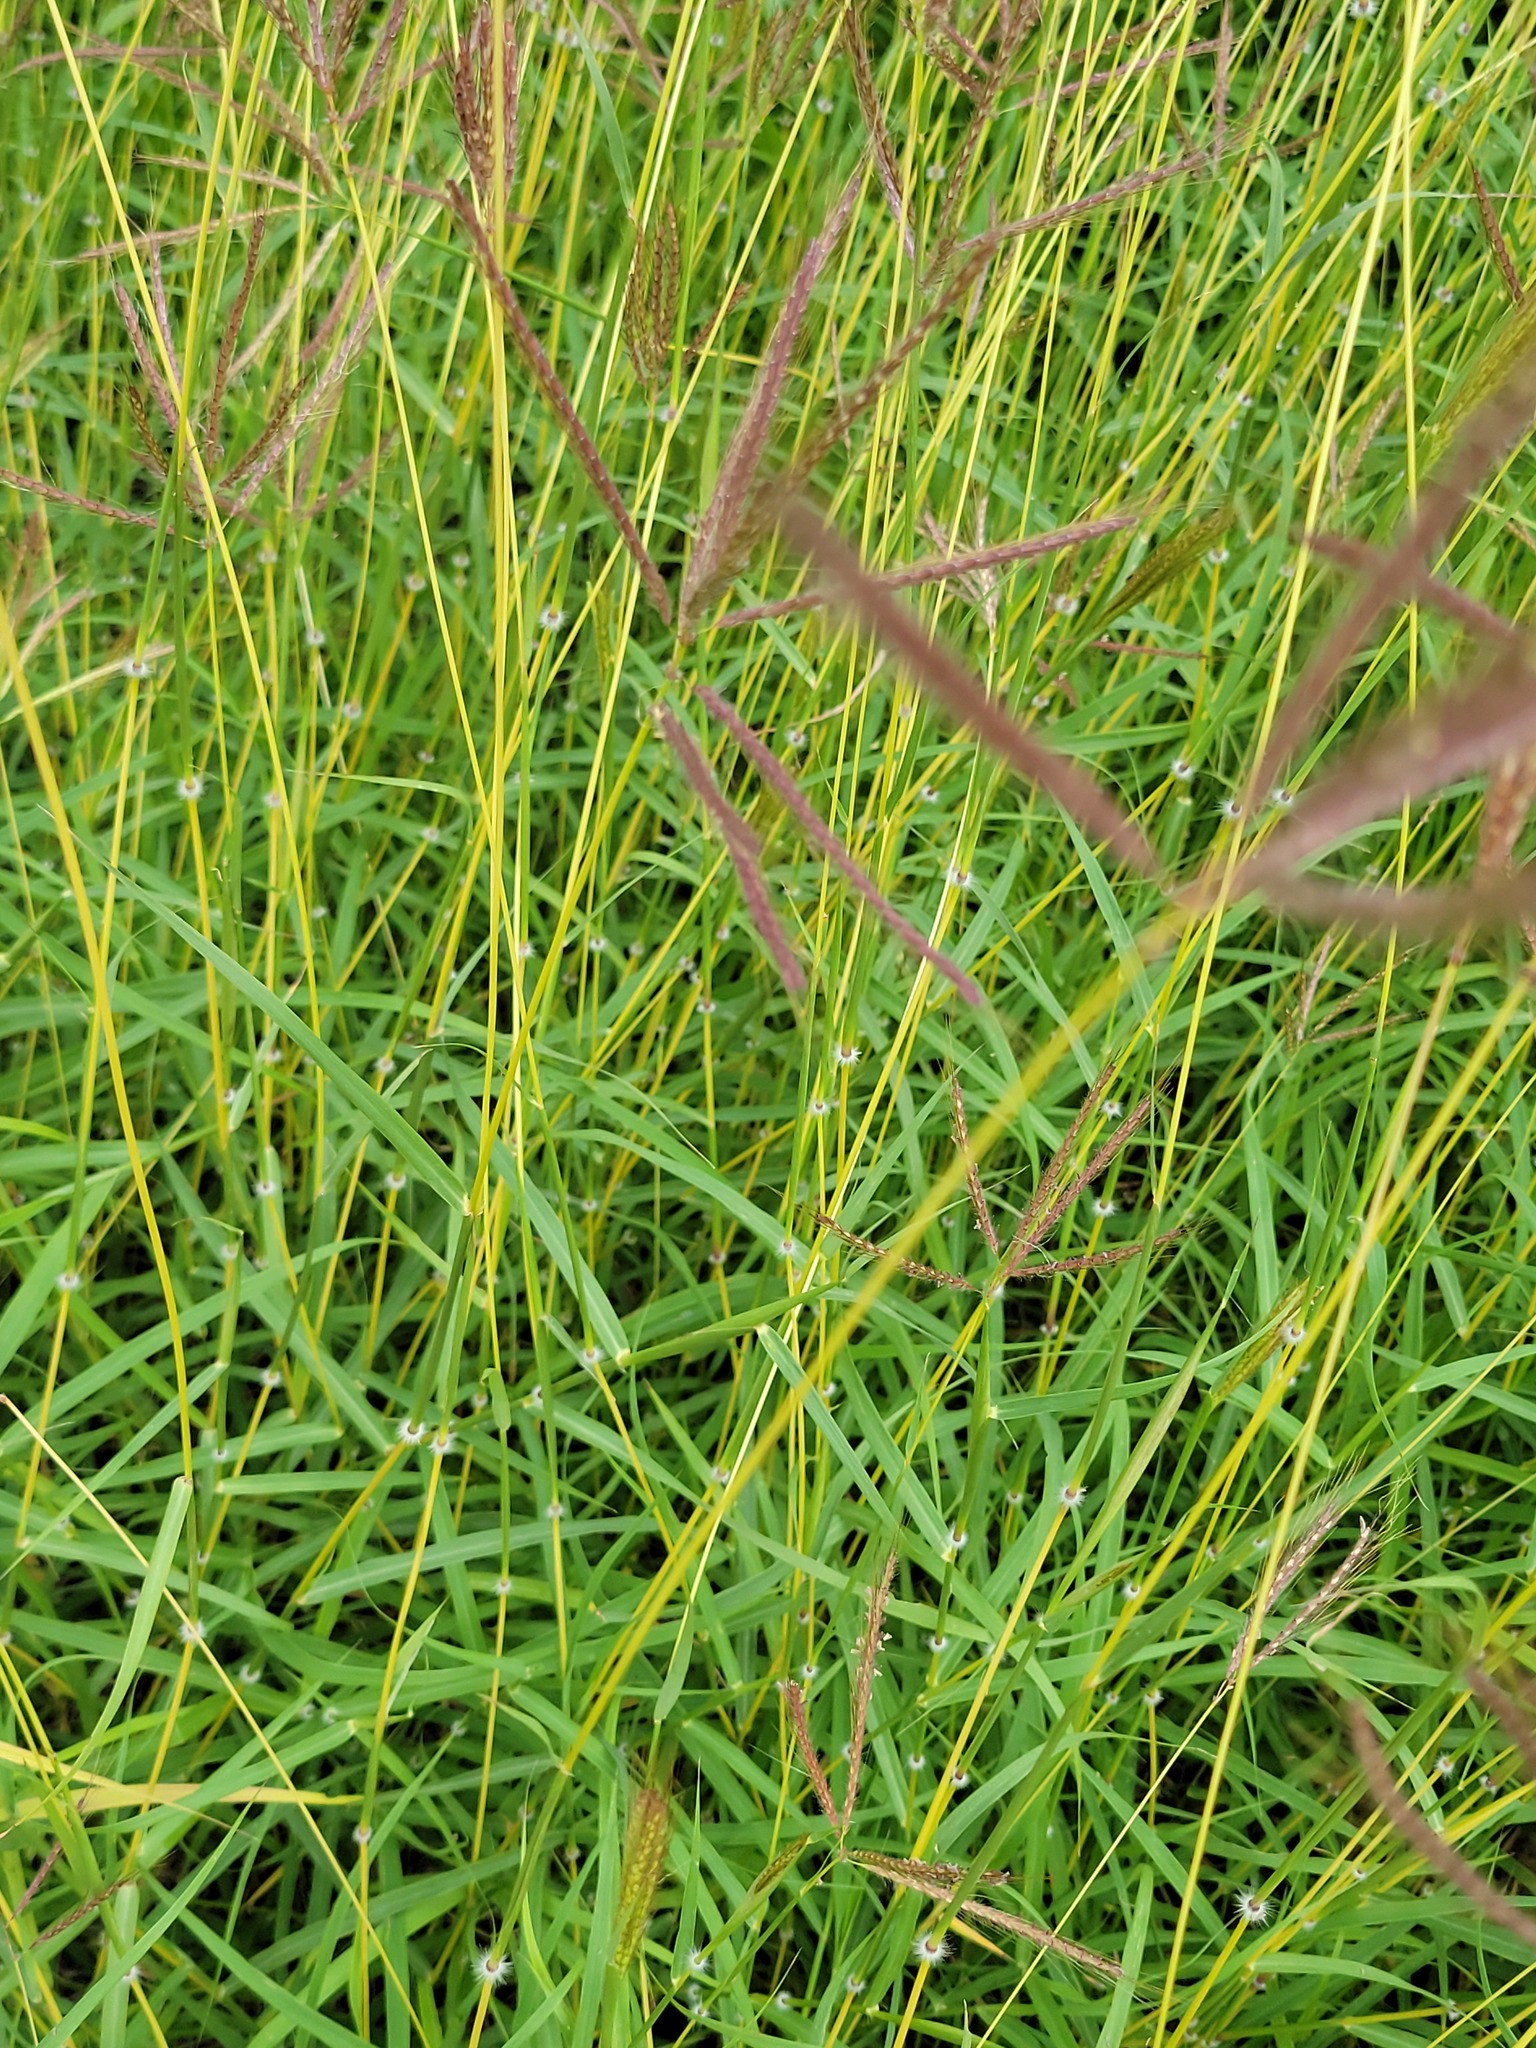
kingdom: Plantae
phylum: Tracheophyta
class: Liliopsida
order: Poales
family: Poaceae
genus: Dichanthium
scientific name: Dichanthium annulatum
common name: Kleberg's bluestem
